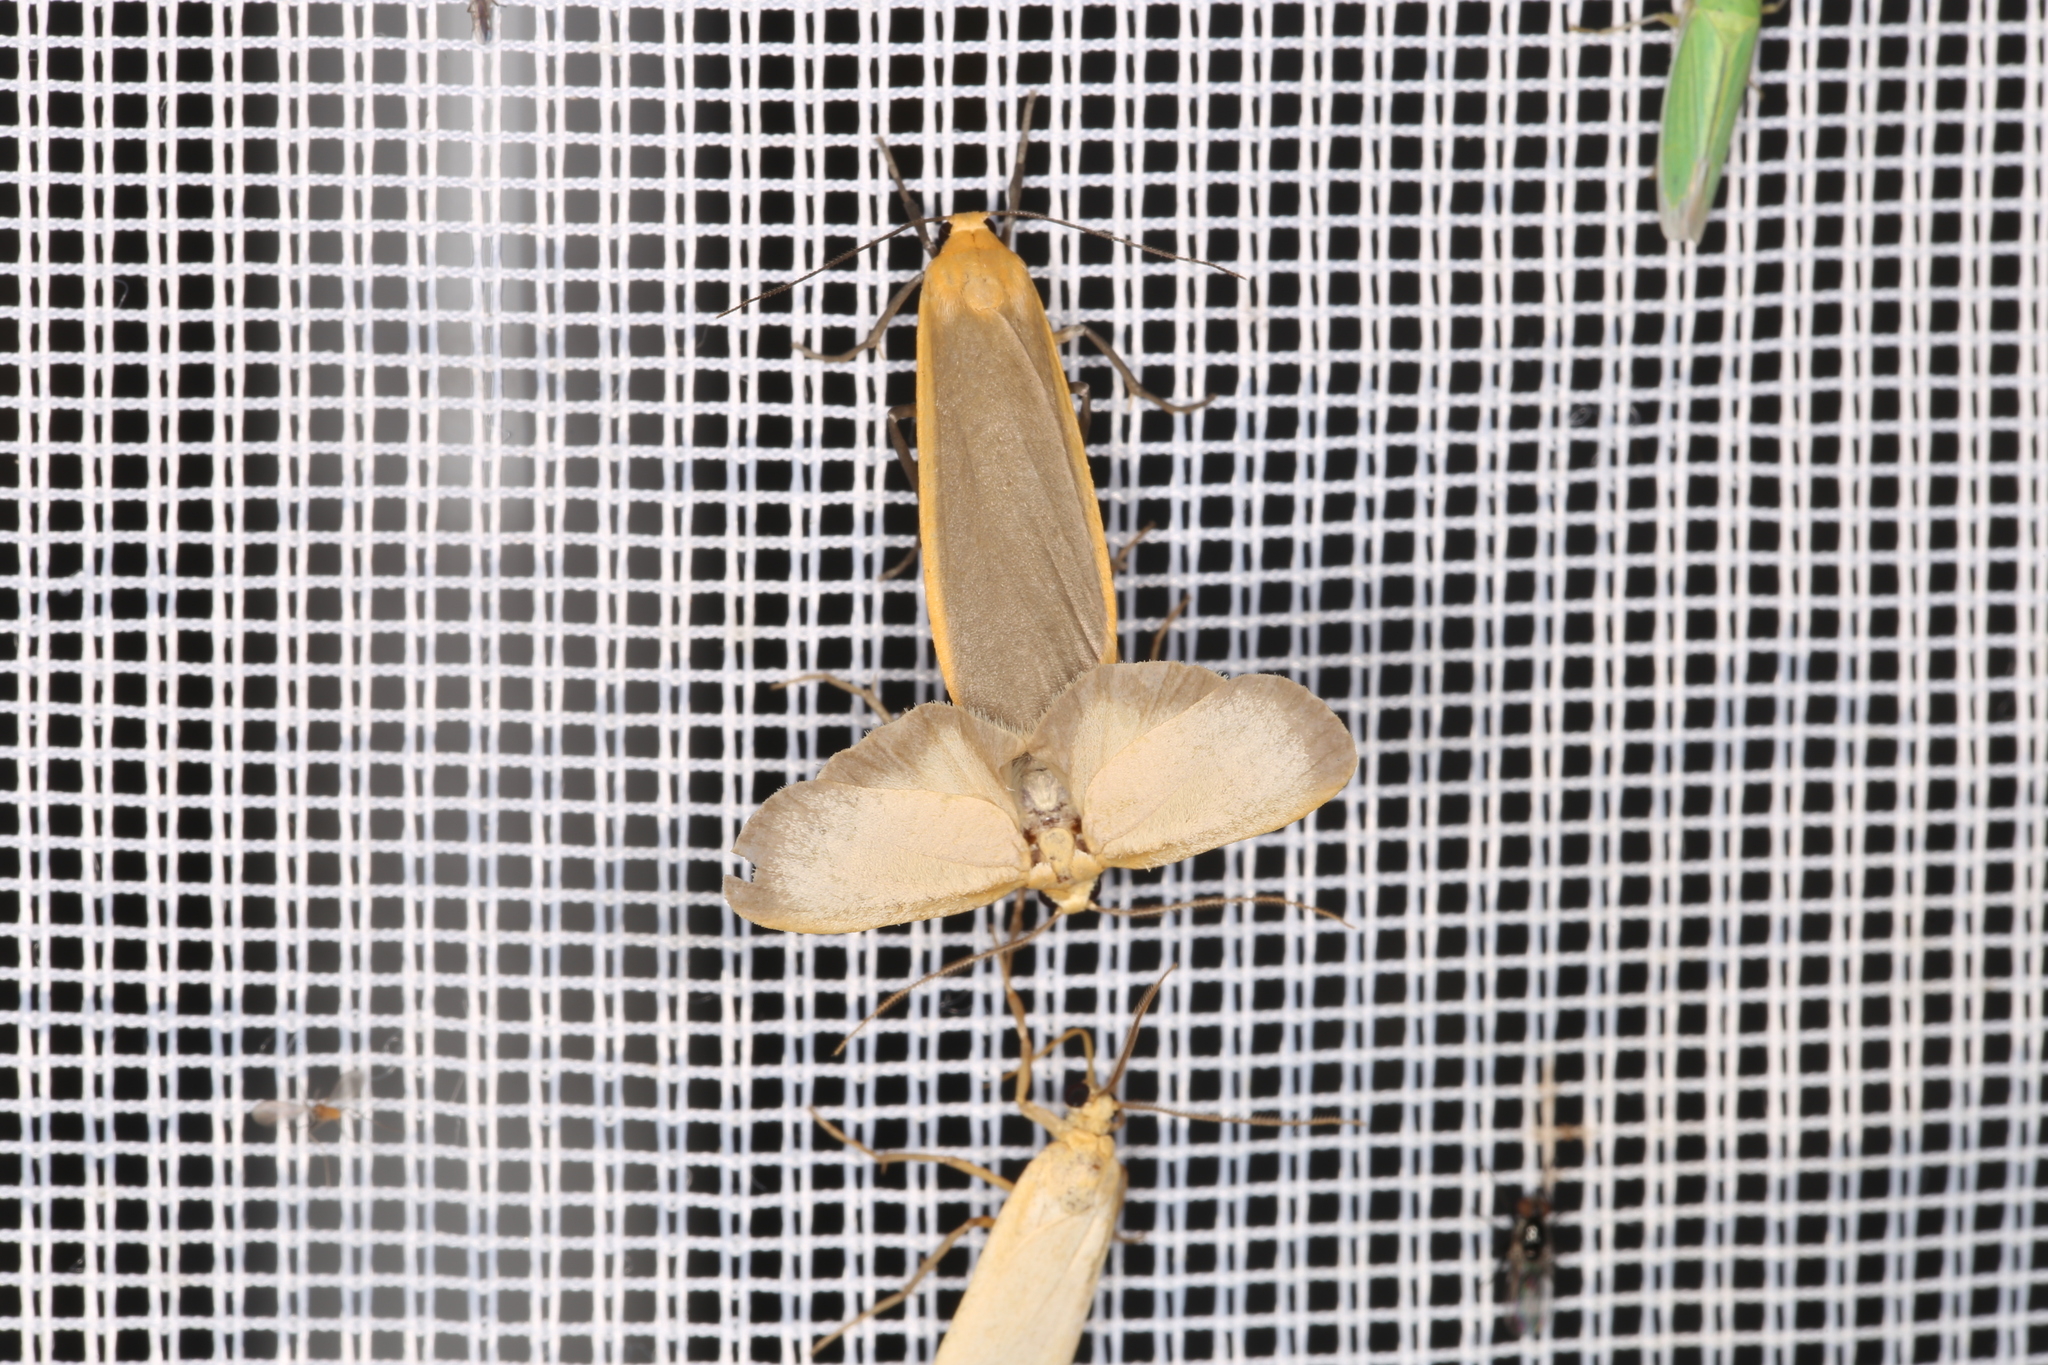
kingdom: Animalia
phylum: Arthropoda
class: Insecta
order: Lepidoptera
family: Erebidae
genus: Katha
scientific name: Katha depressa
